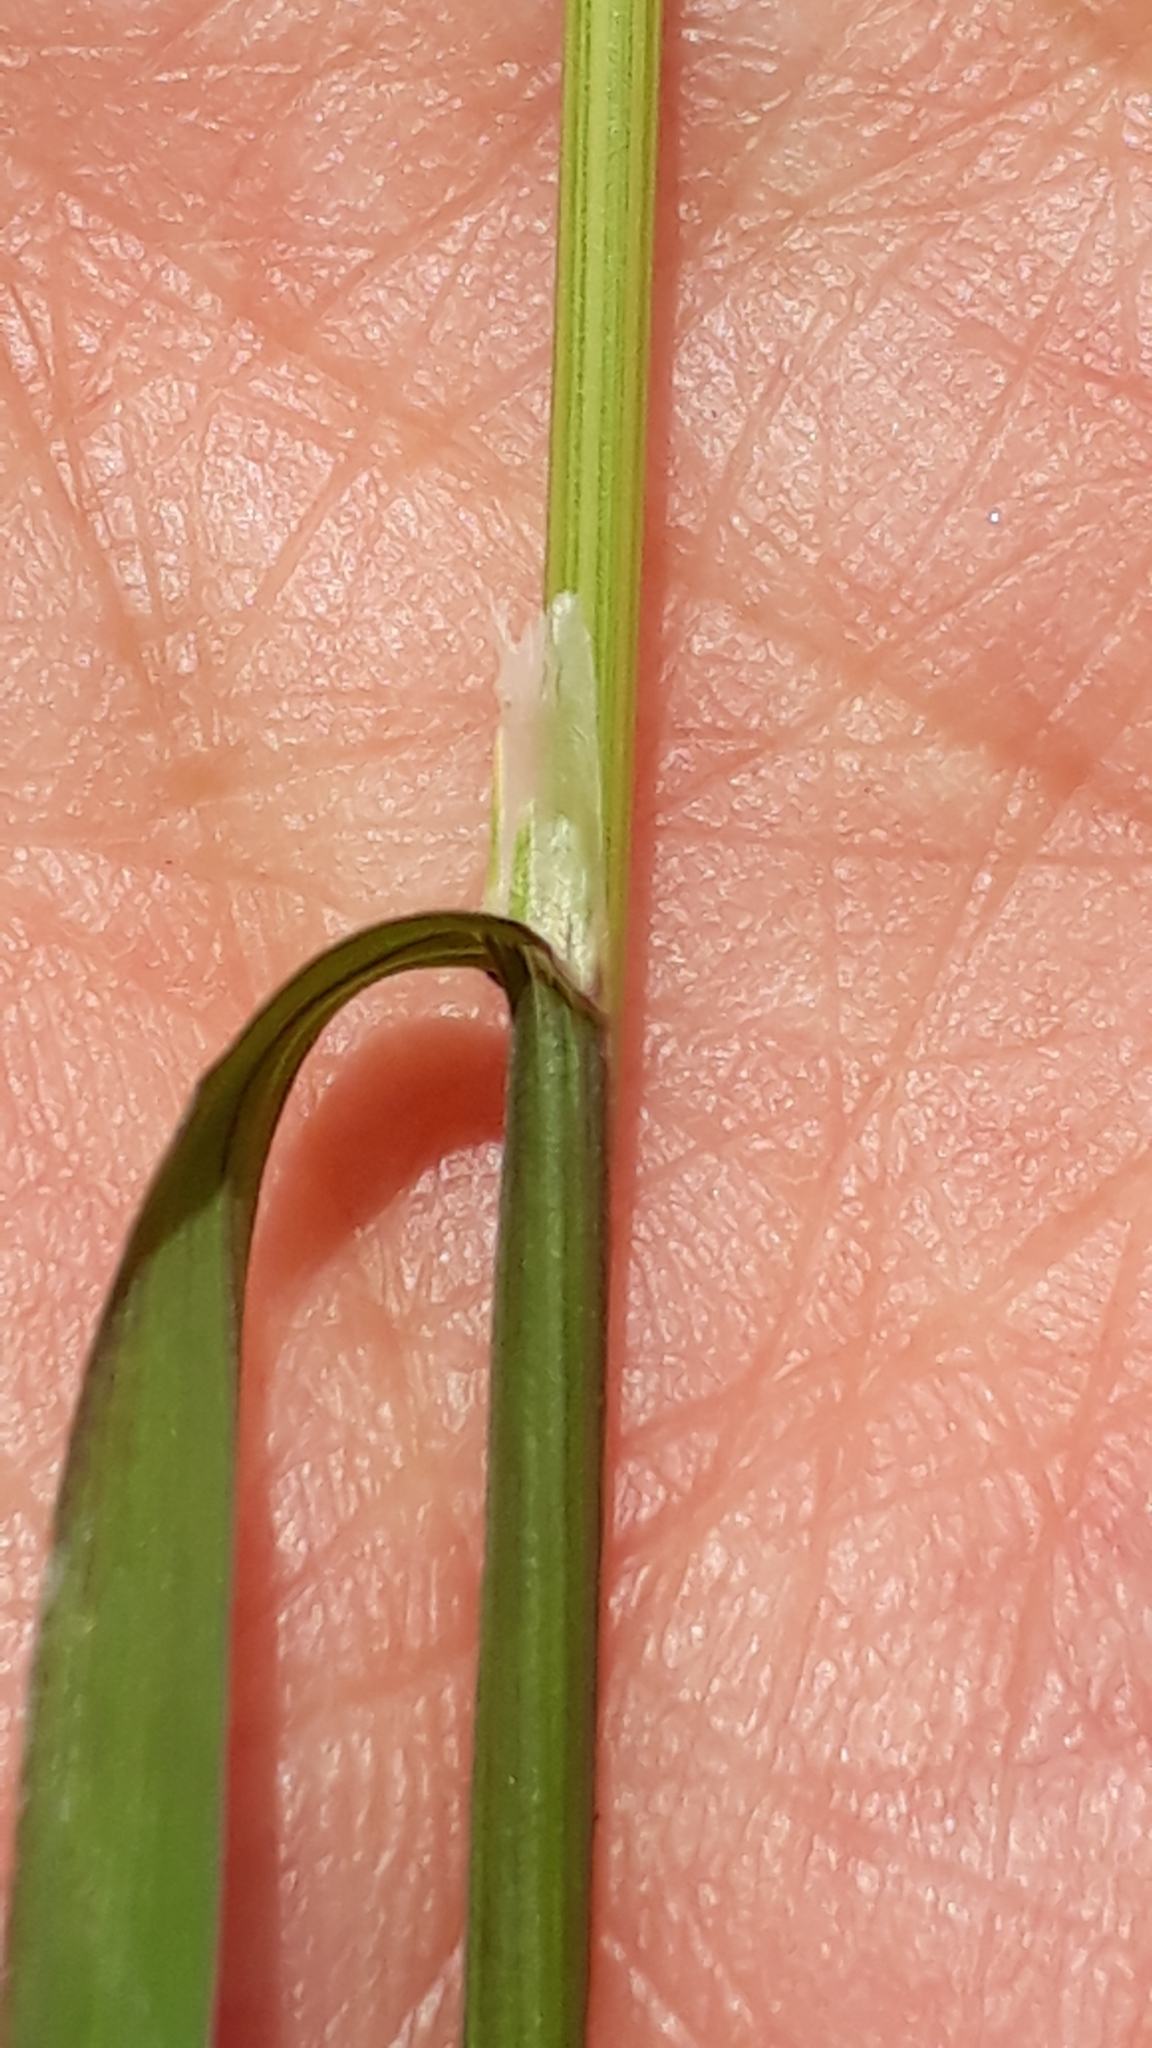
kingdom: Plantae
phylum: Tracheophyta
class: Liliopsida
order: Poales
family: Poaceae
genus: Poa
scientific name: Poa trivialis
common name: Rough bluegrass
